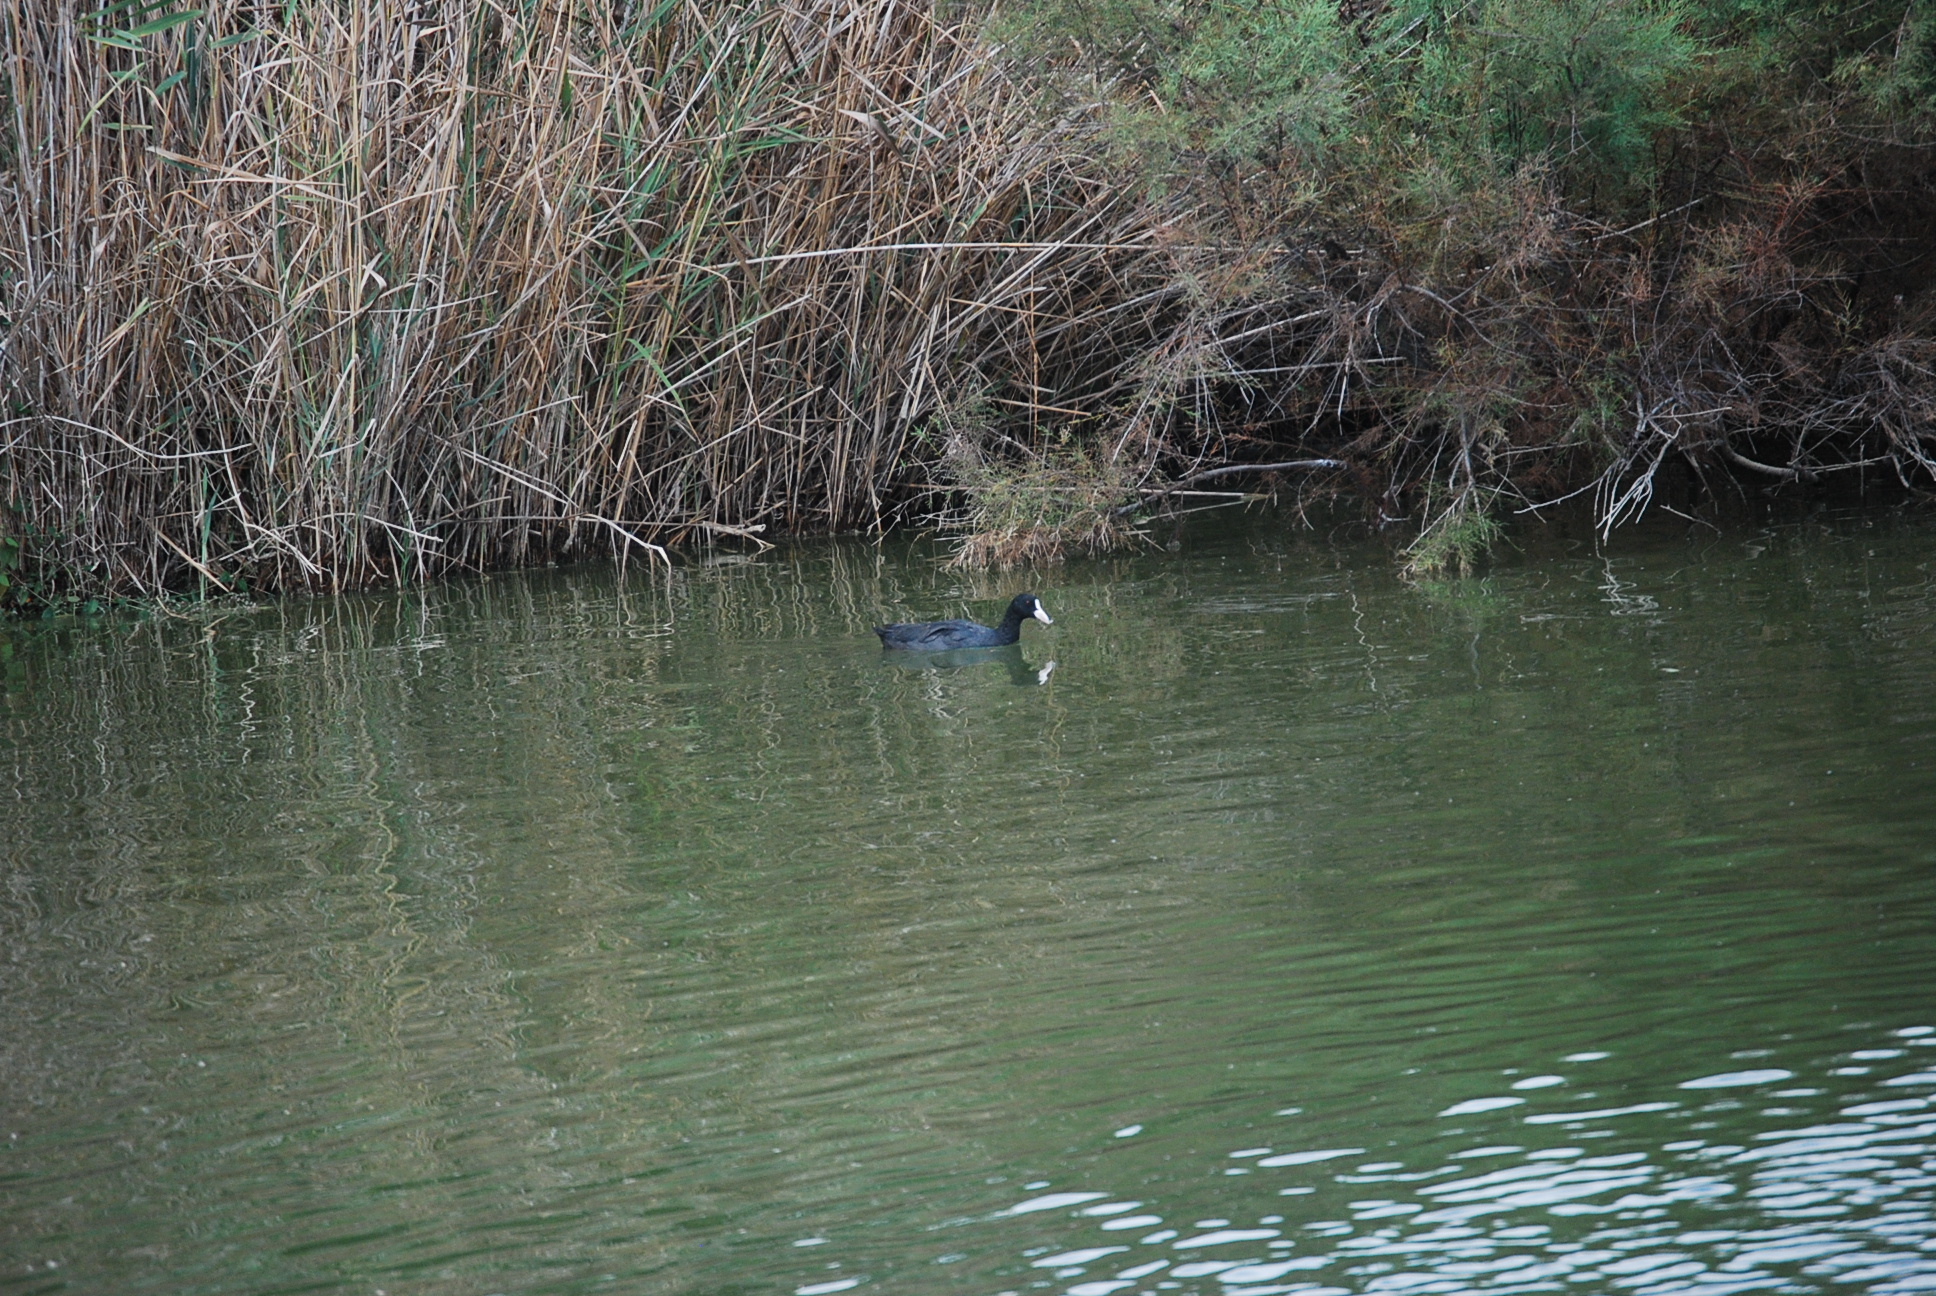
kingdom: Animalia
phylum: Chordata
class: Aves
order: Gruiformes
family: Rallidae
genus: Fulica
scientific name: Fulica atra
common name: Eurasian coot
